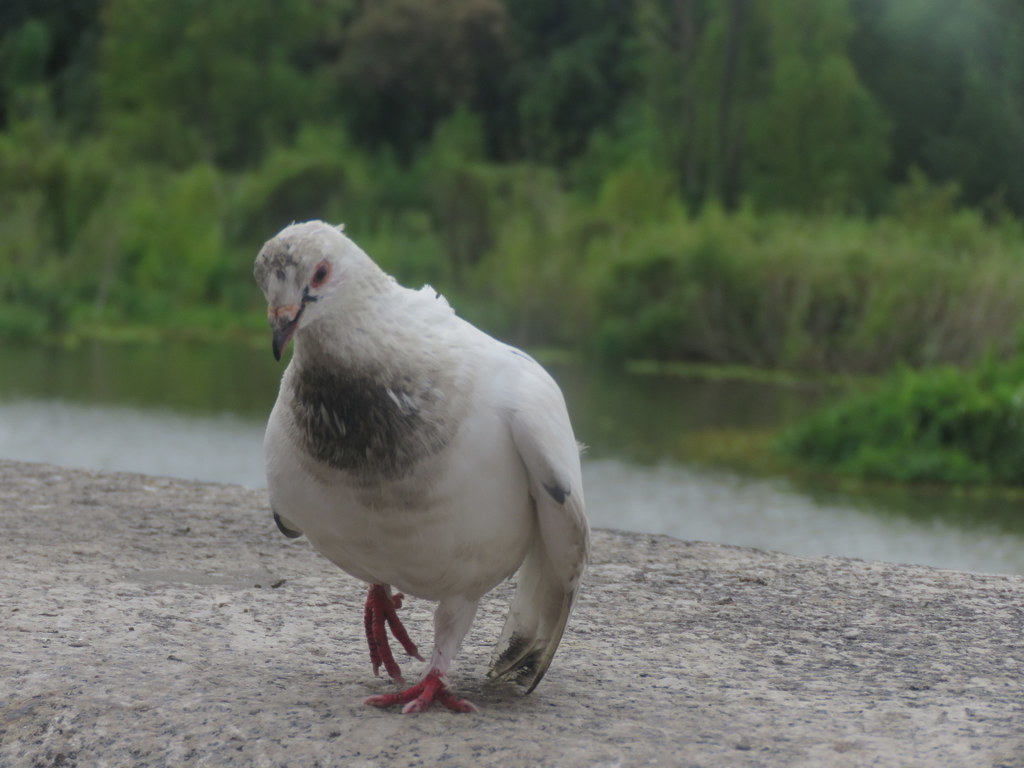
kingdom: Animalia
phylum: Chordata
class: Aves
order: Columbiformes
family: Columbidae
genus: Columba
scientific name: Columba livia
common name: Rock pigeon
